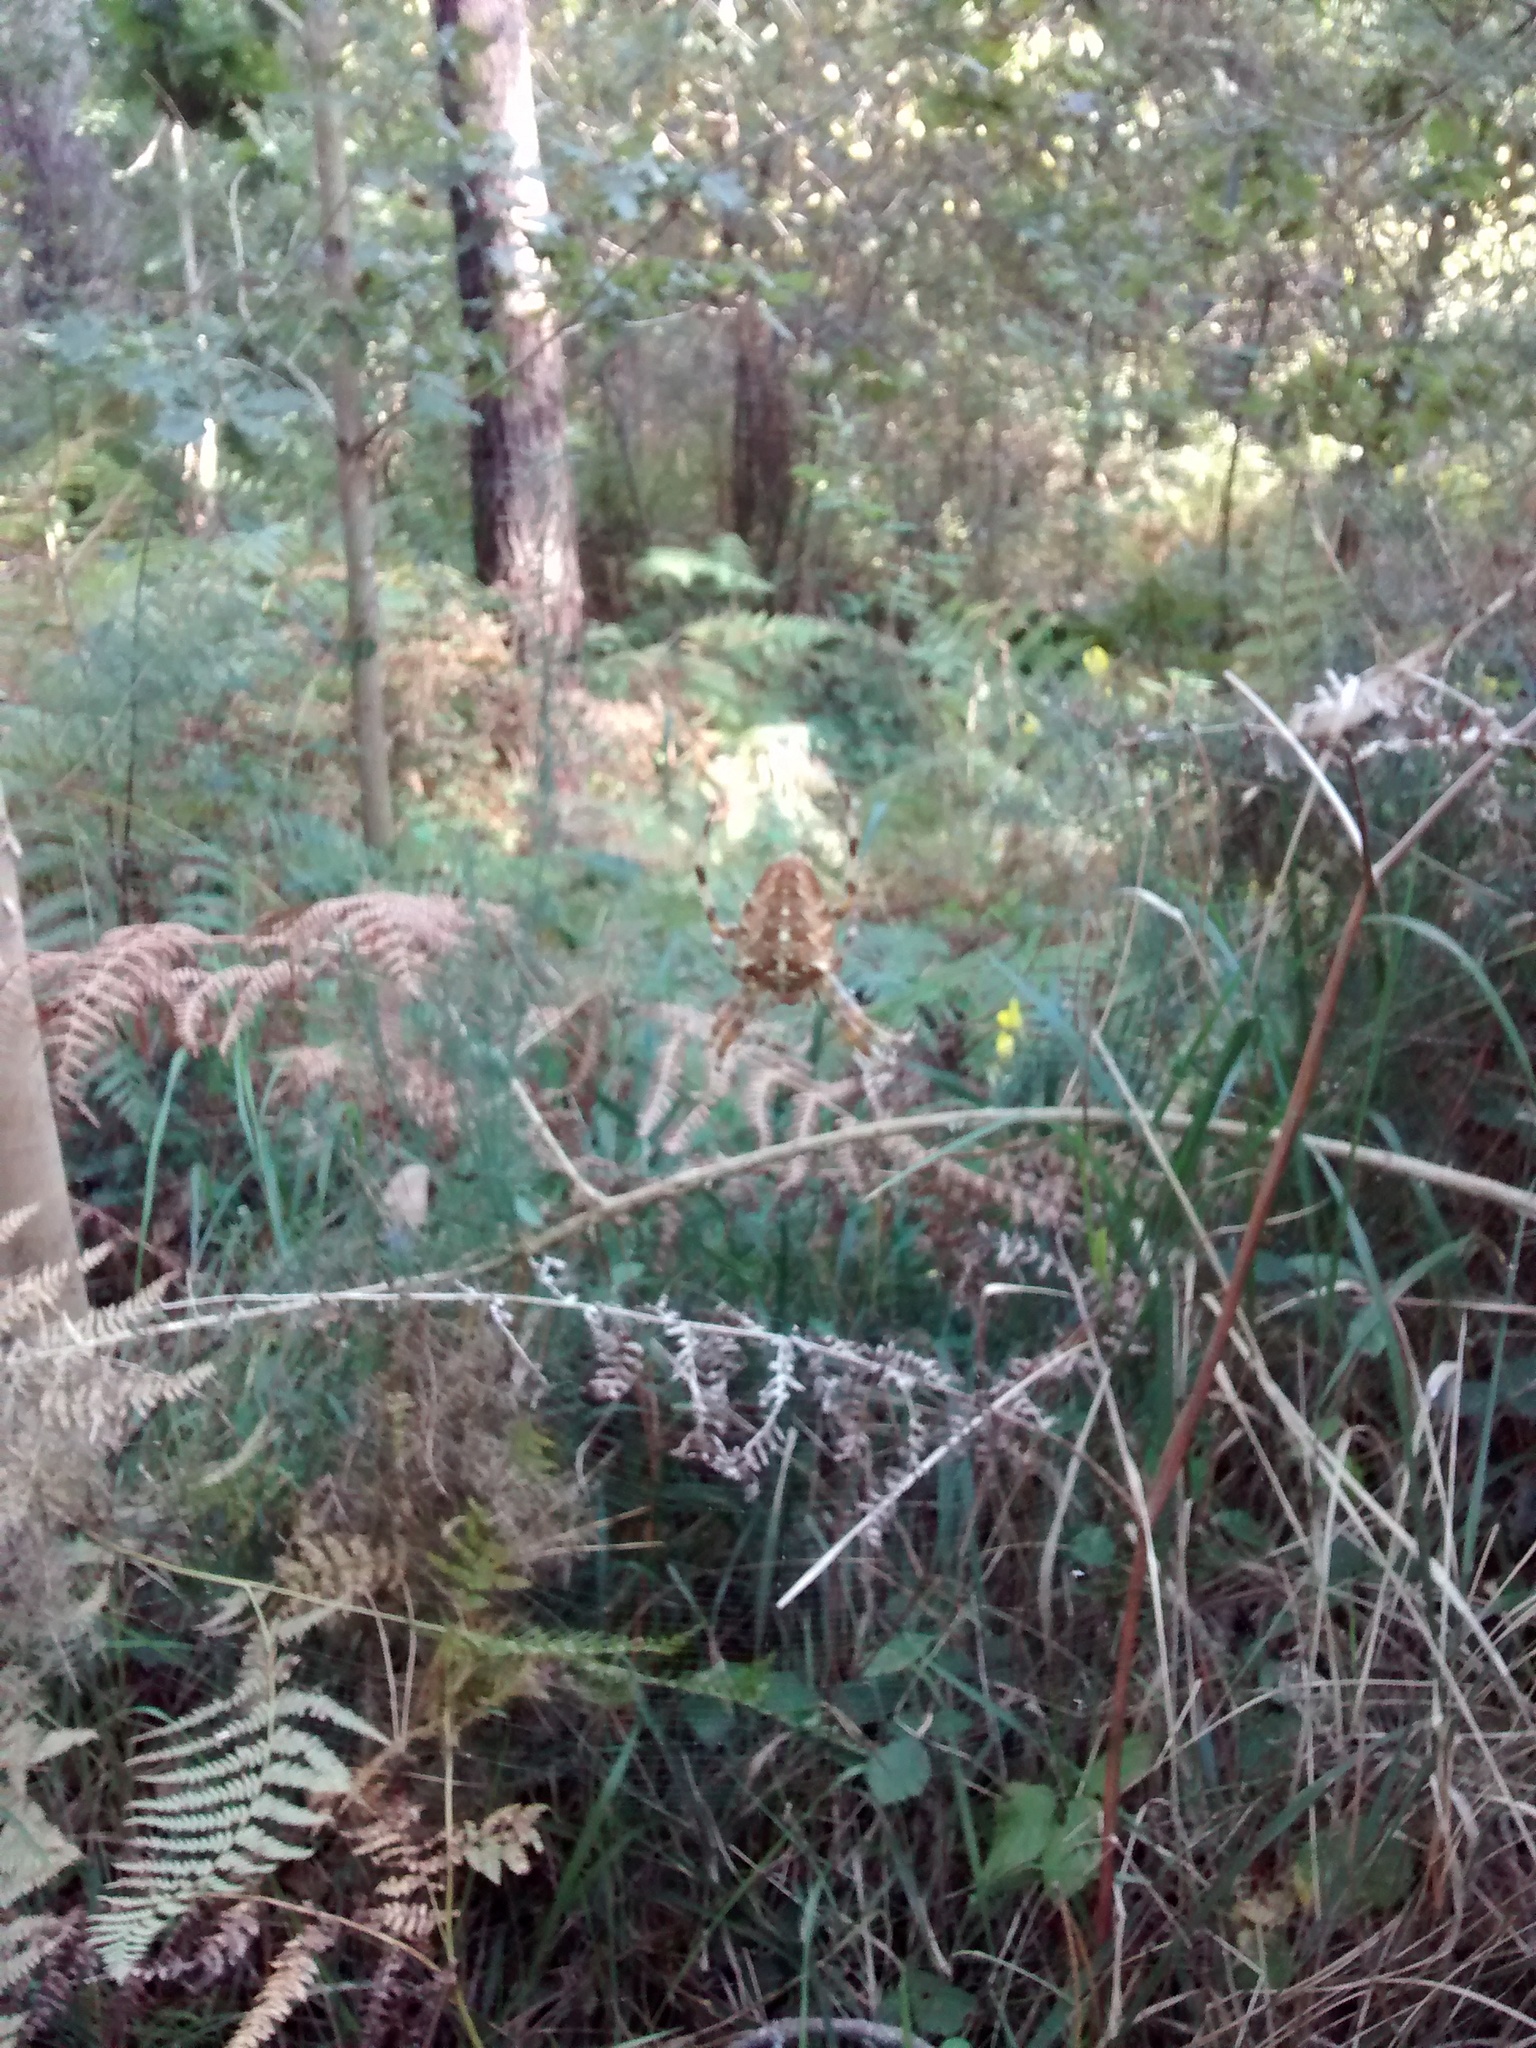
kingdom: Animalia
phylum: Arthropoda
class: Arachnida
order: Araneae
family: Araneidae
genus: Araneus
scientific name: Araneus diadematus
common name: Cross orbweaver
